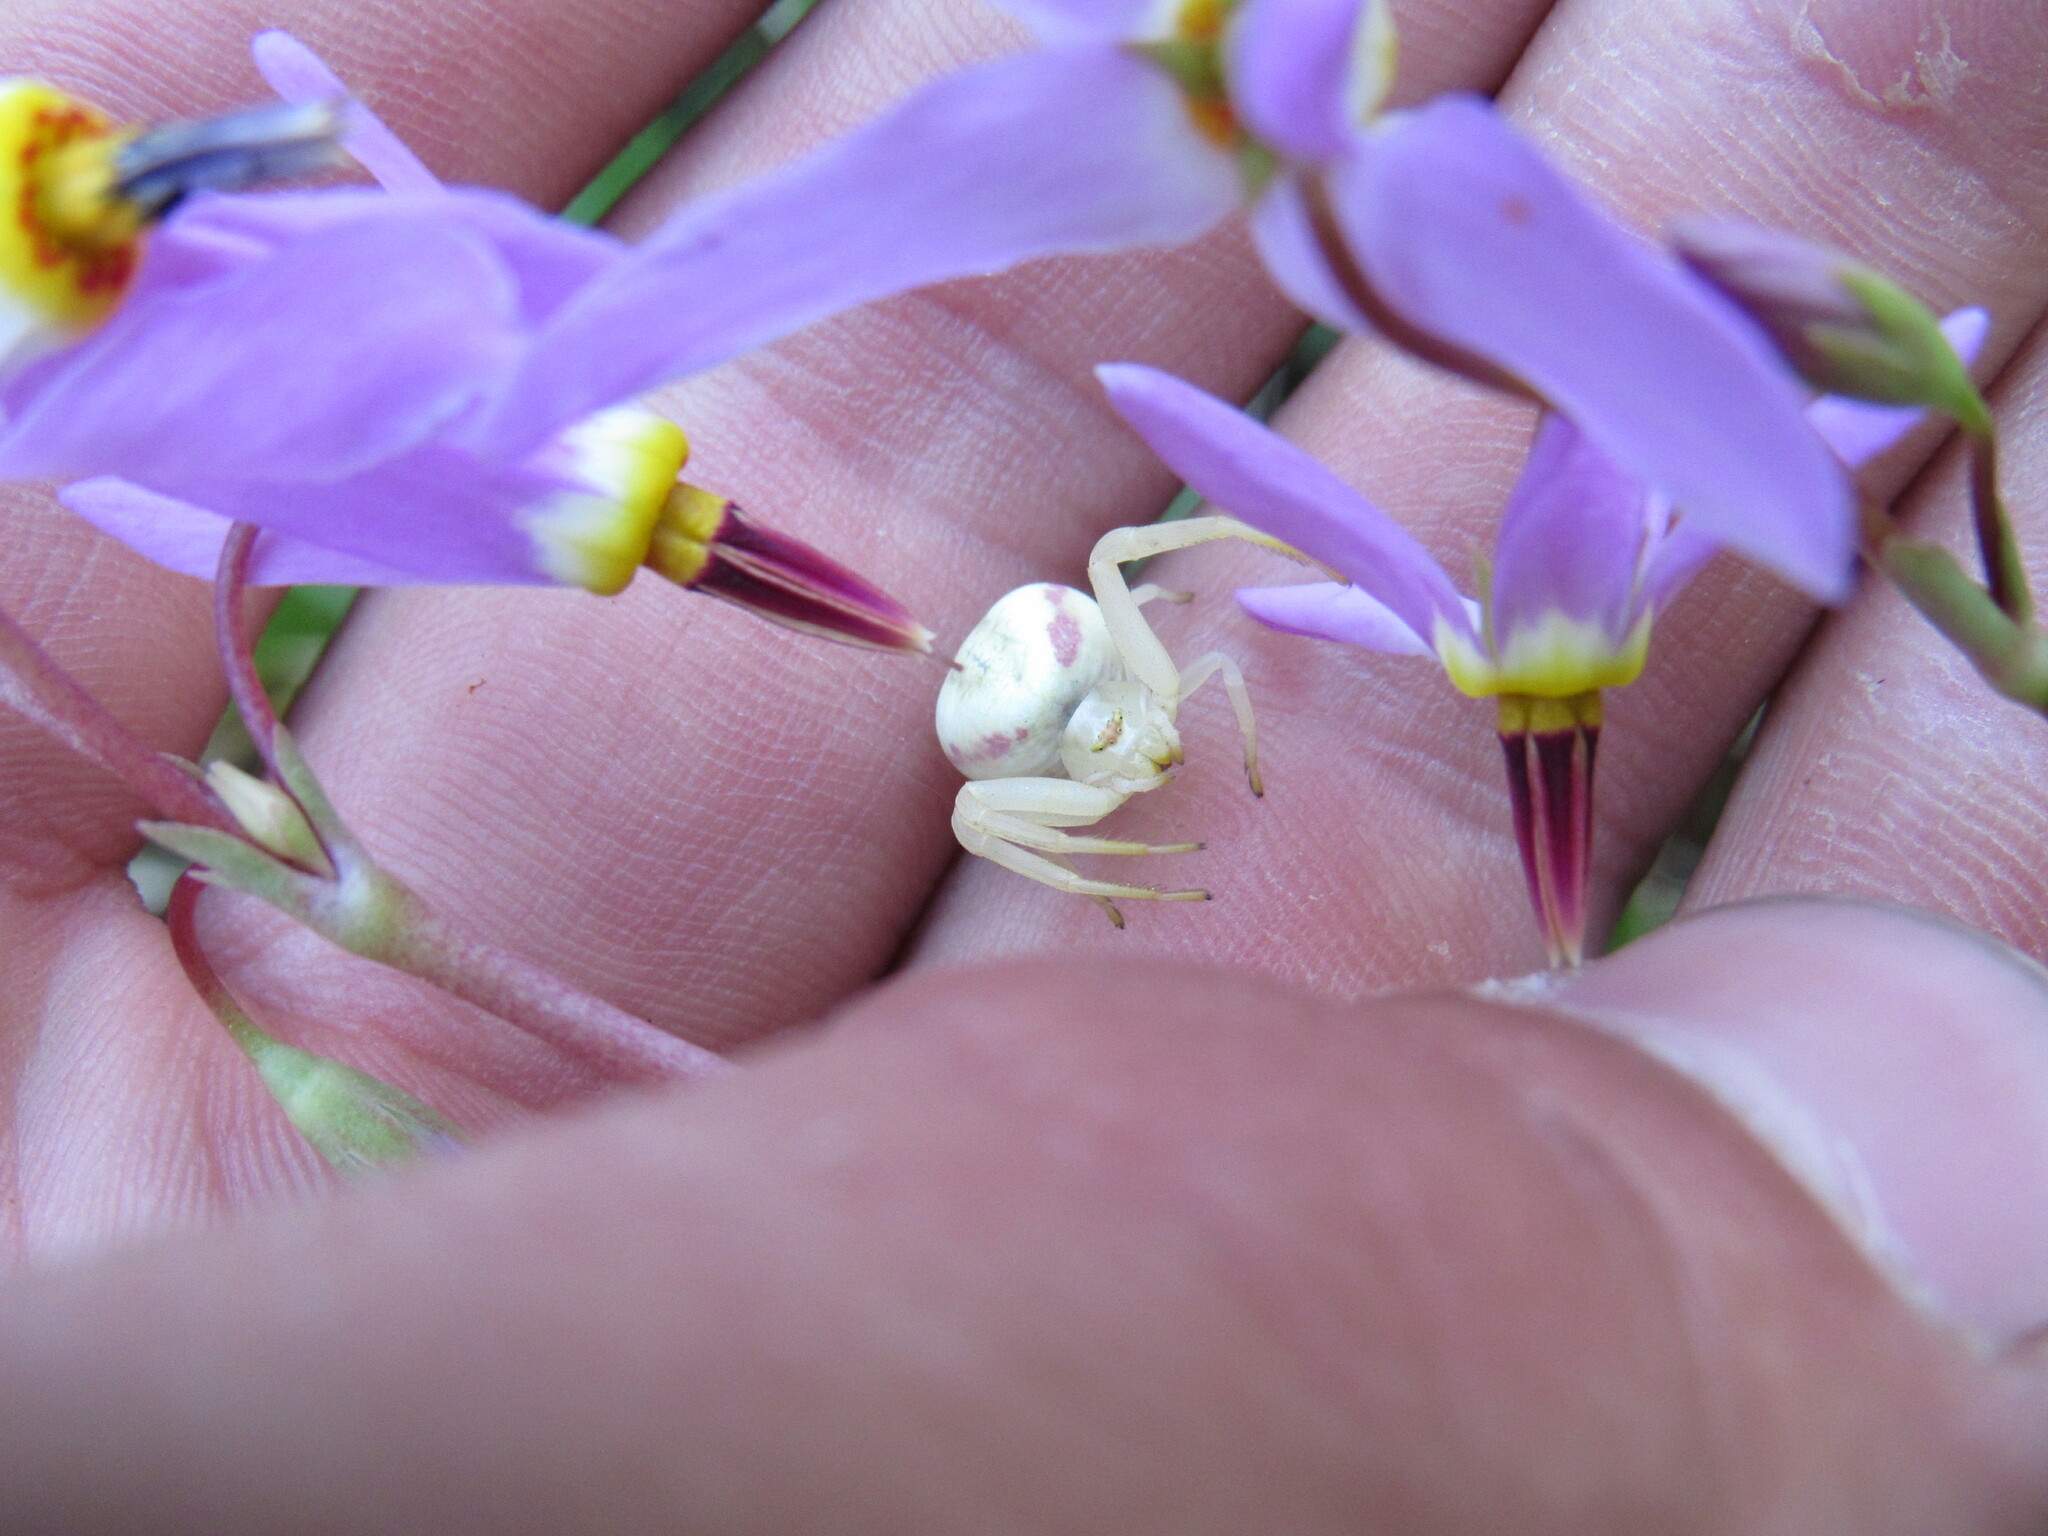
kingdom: Animalia
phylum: Arthropoda
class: Arachnida
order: Araneae
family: Thomisidae
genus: Misumena
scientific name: Misumena vatia
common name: Goldenrod crab spider
